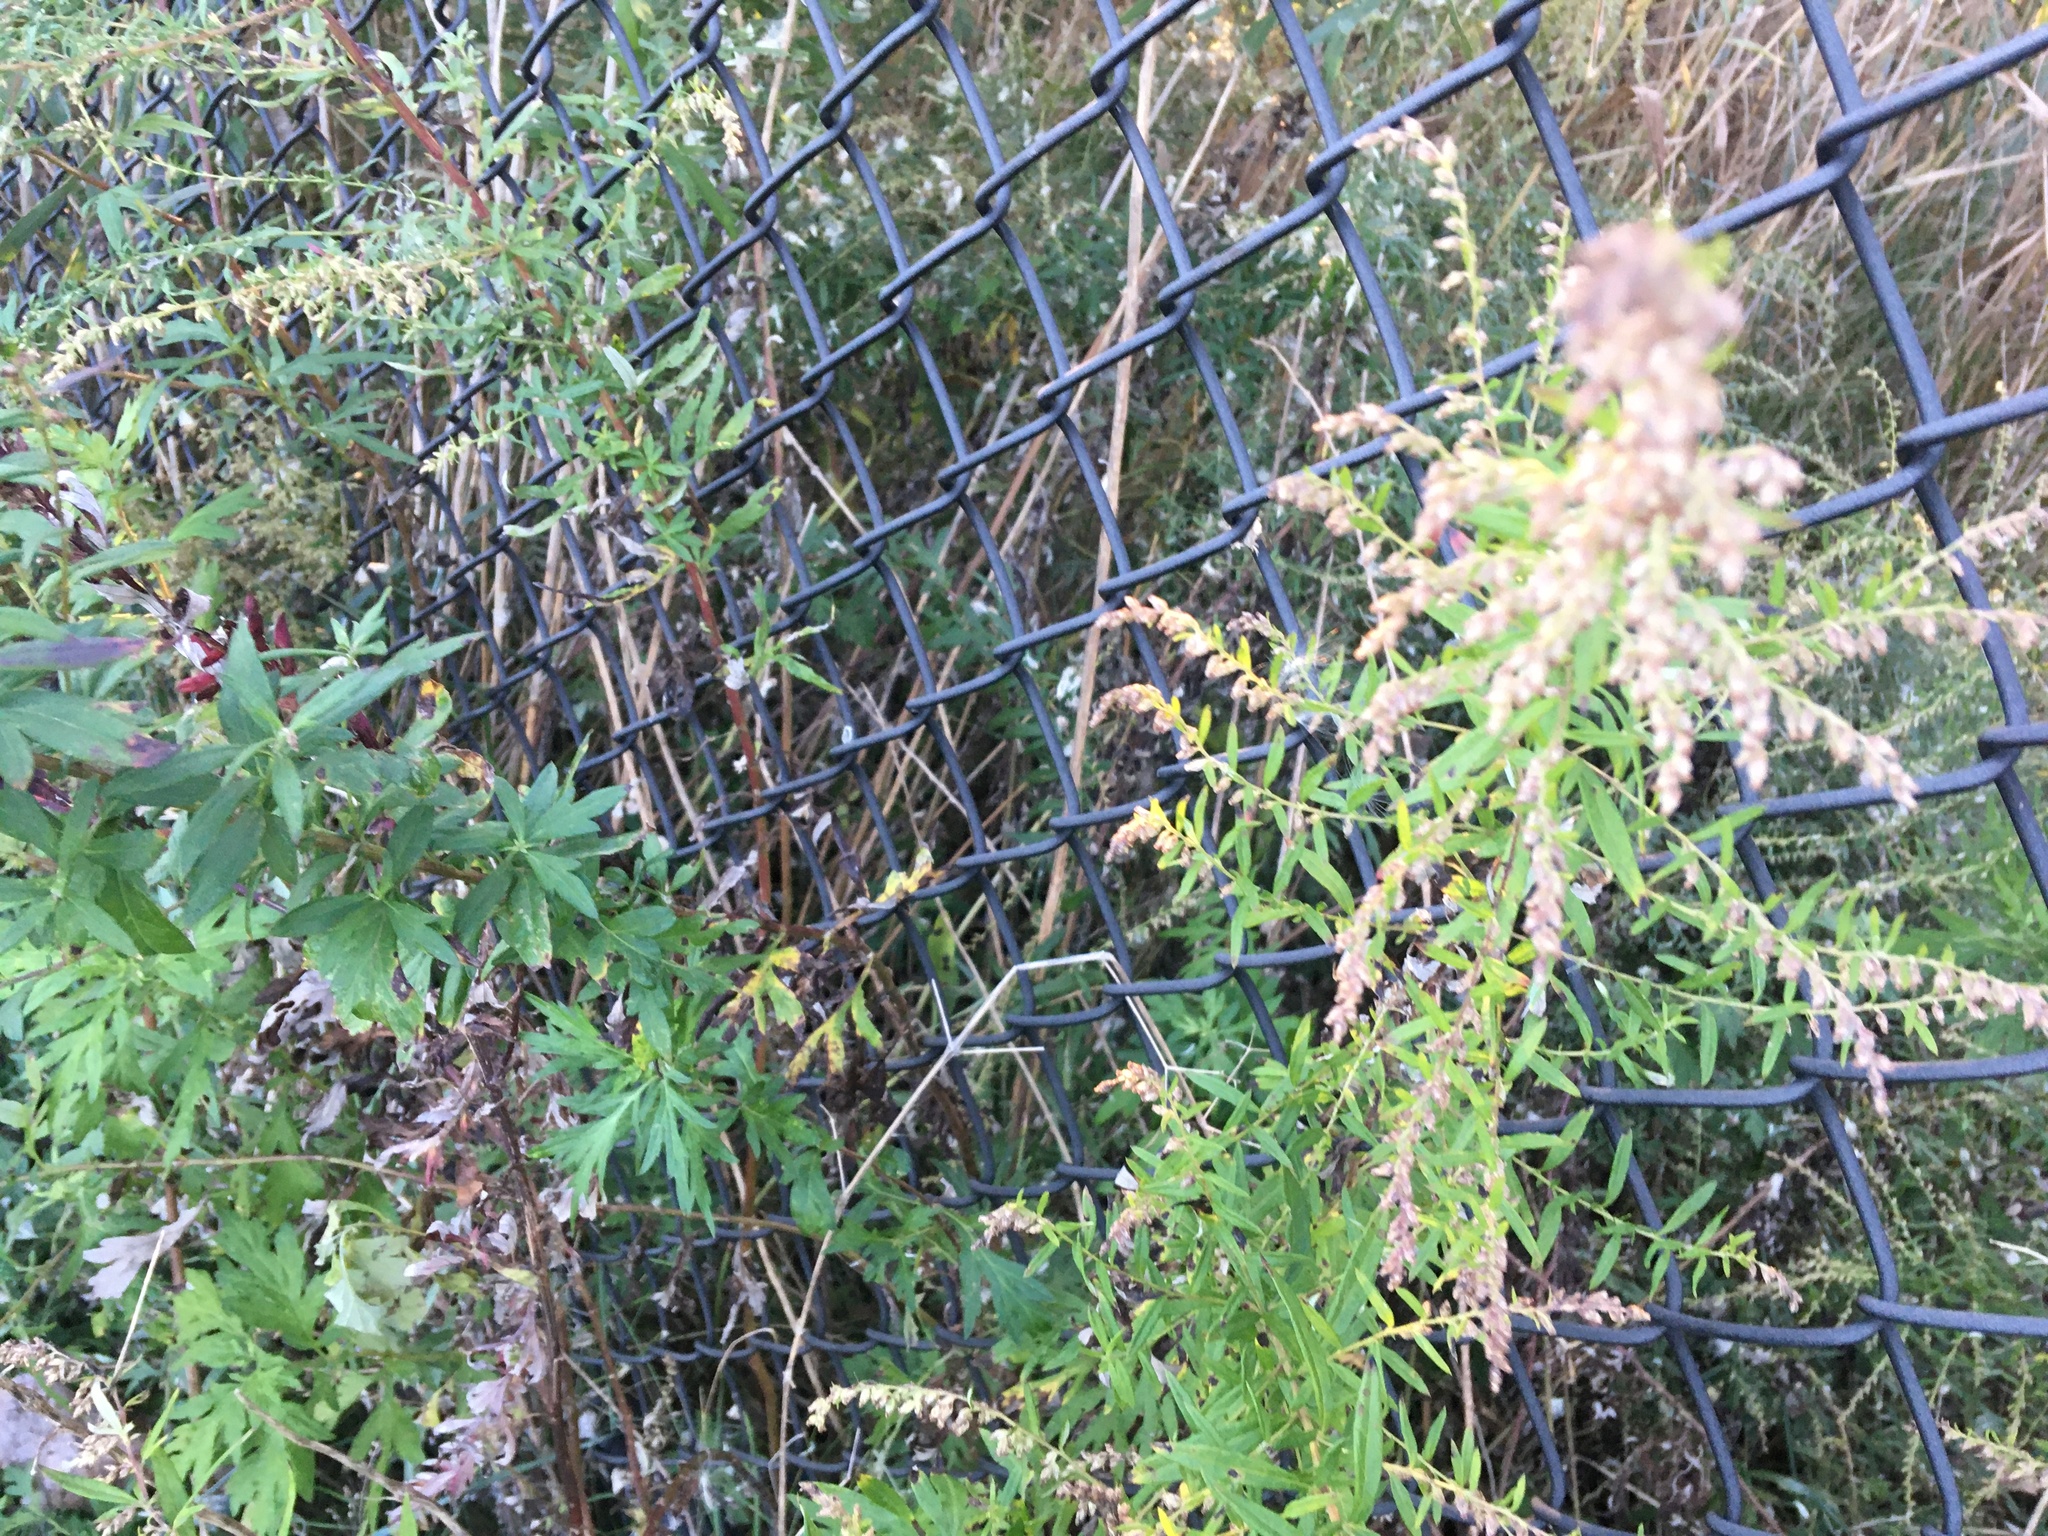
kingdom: Plantae
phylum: Tracheophyta
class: Magnoliopsida
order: Asterales
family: Asteraceae
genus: Artemisia
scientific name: Artemisia vulgaris
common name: Mugwort
